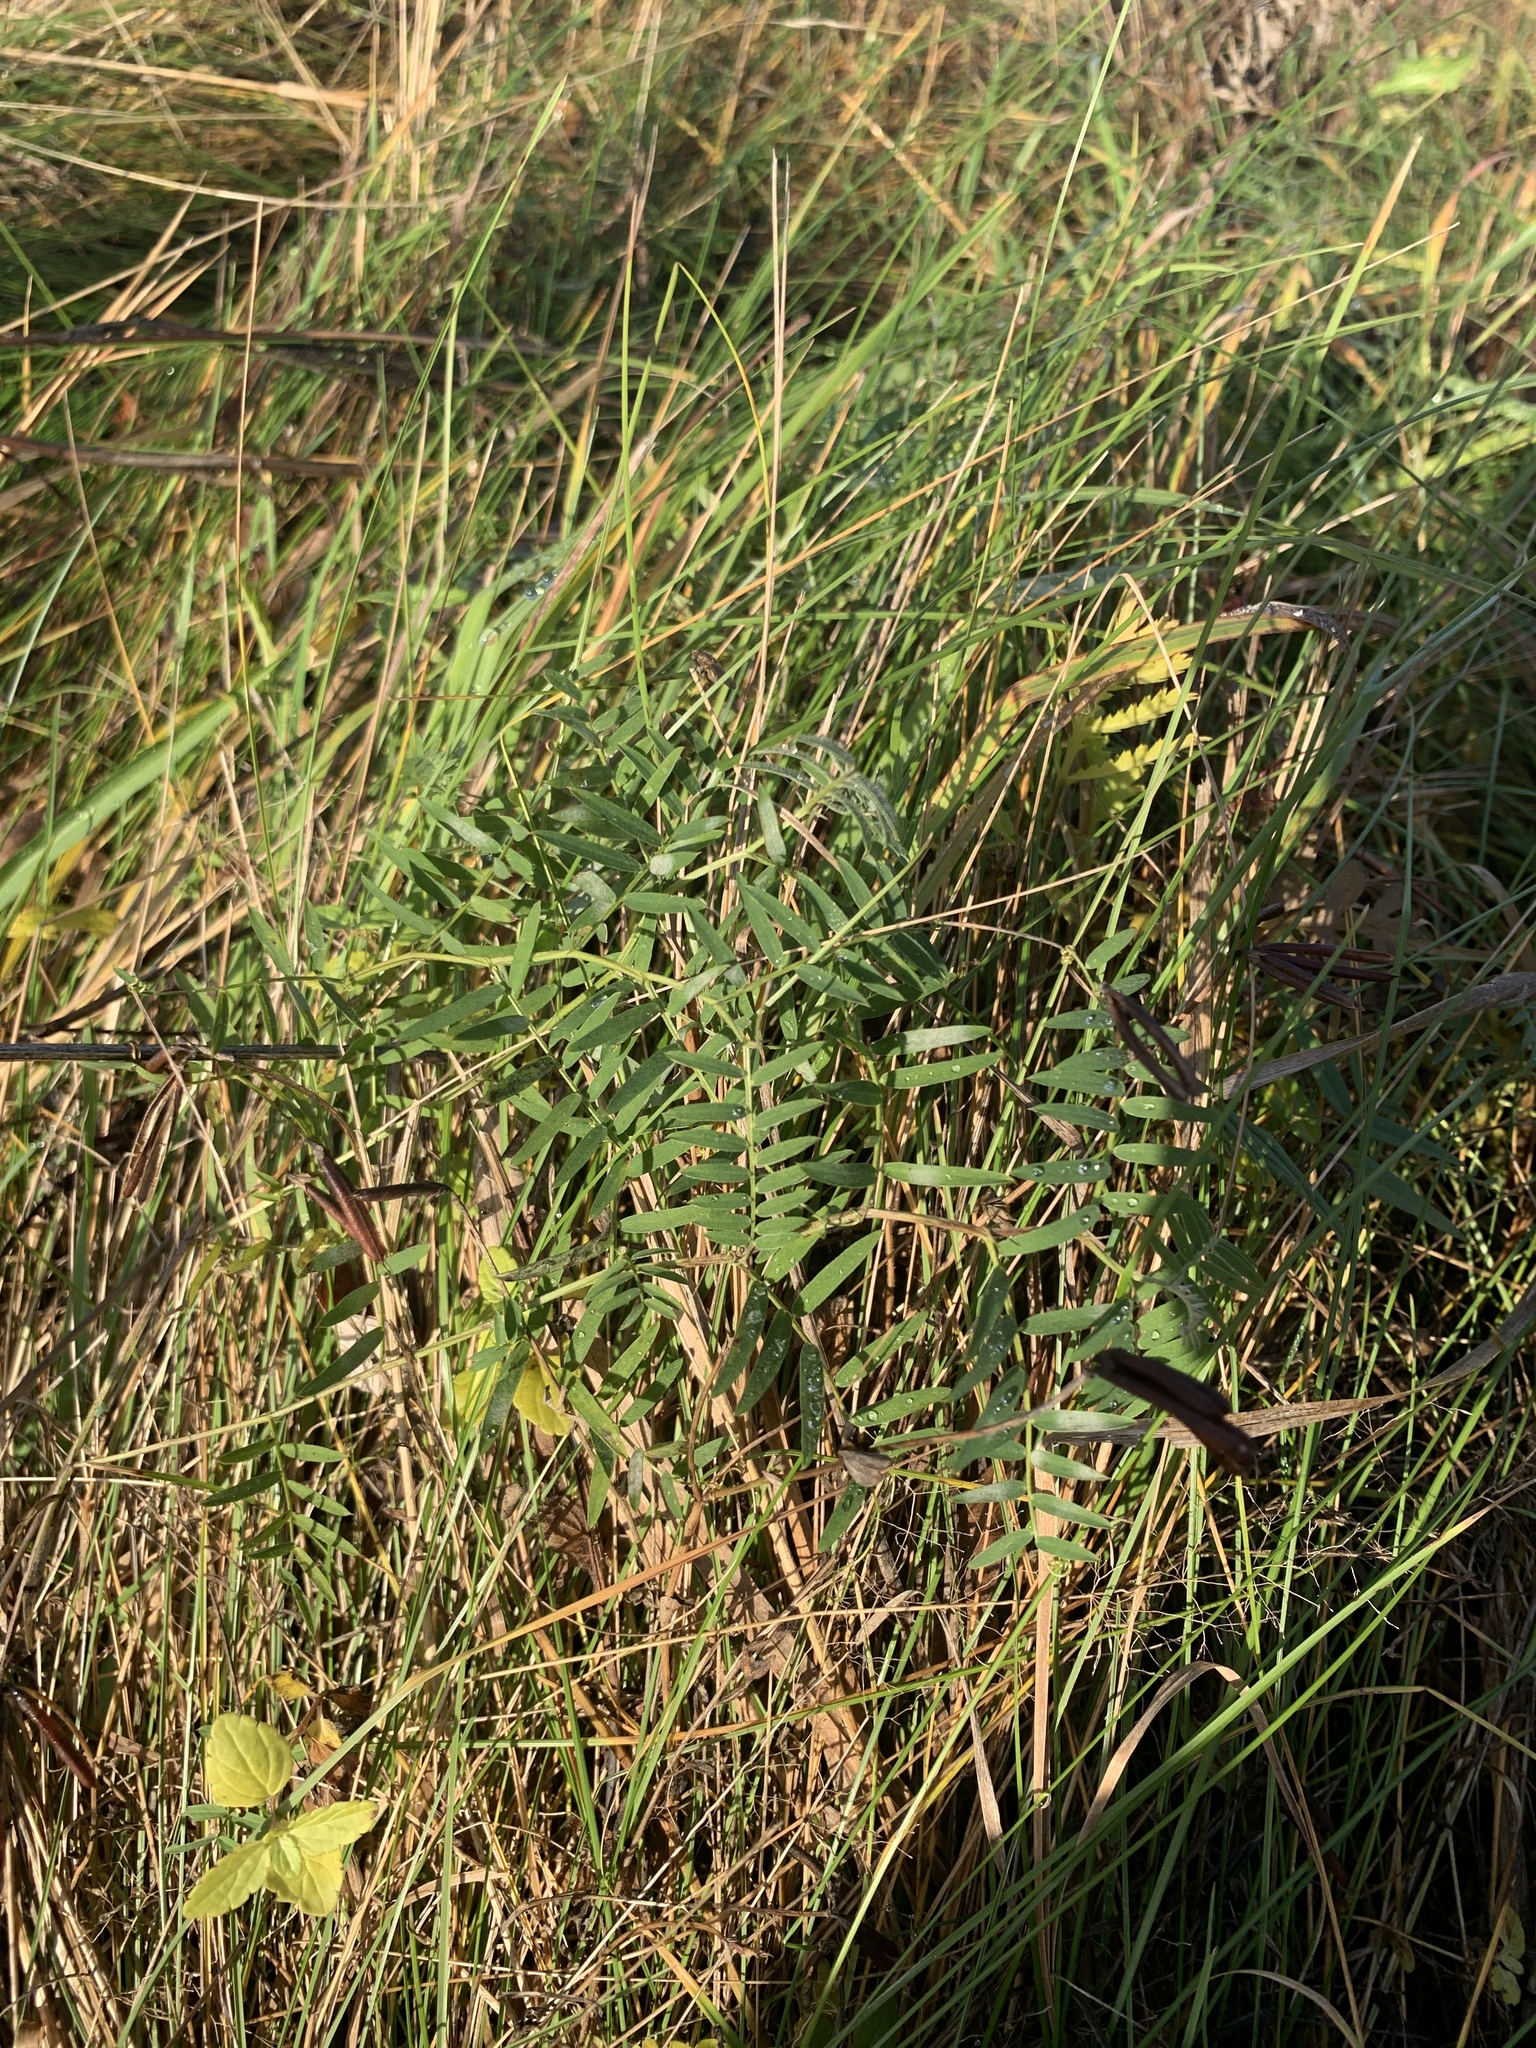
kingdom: Plantae
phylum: Tracheophyta
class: Magnoliopsida
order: Fabales
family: Fabaceae
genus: Vicia
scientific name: Vicia cracca
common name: Bird vetch
